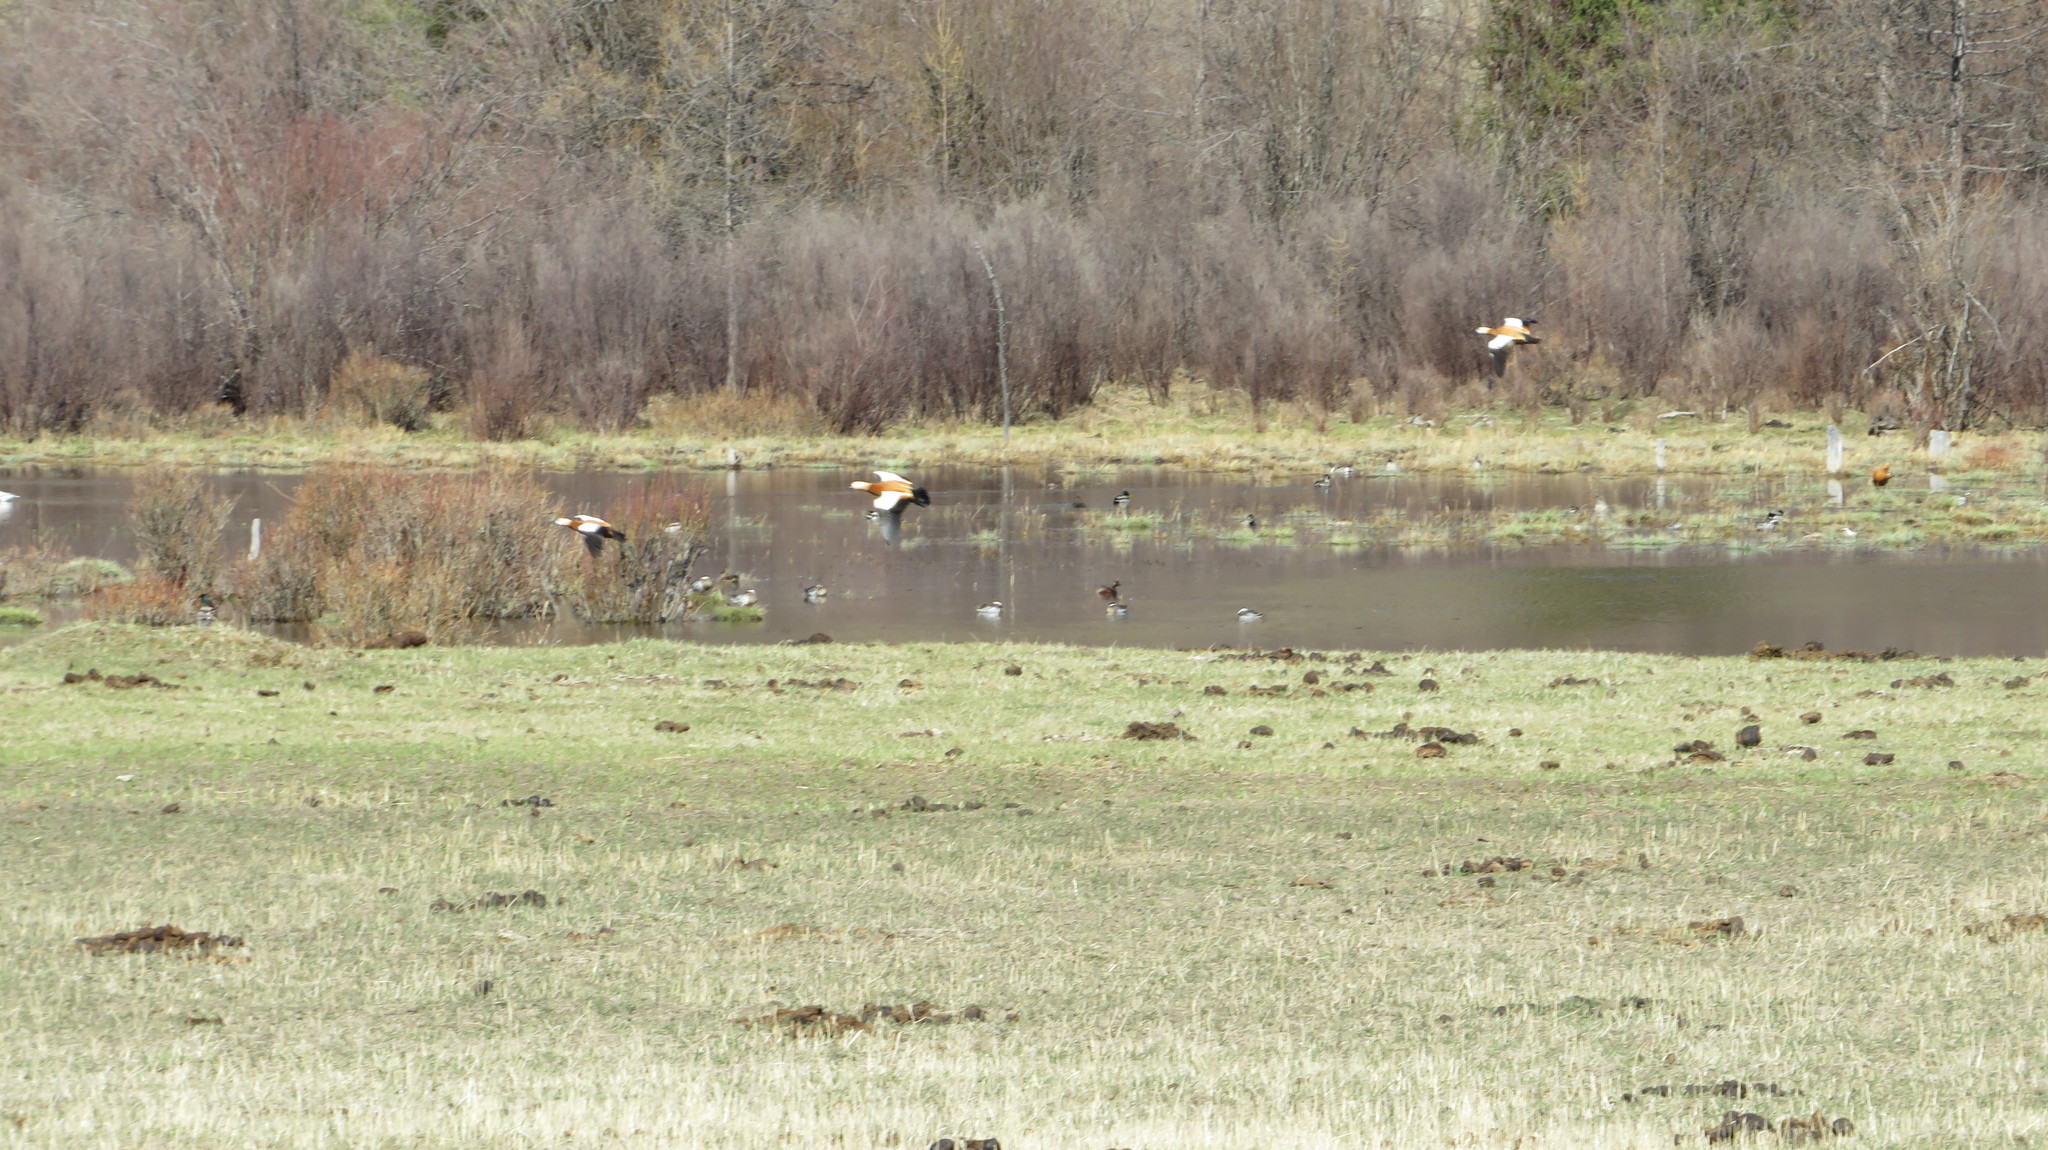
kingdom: Animalia
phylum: Chordata
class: Aves
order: Anseriformes
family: Anatidae
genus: Tadorna
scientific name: Tadorna ferruginea
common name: Ruddy shelduck
